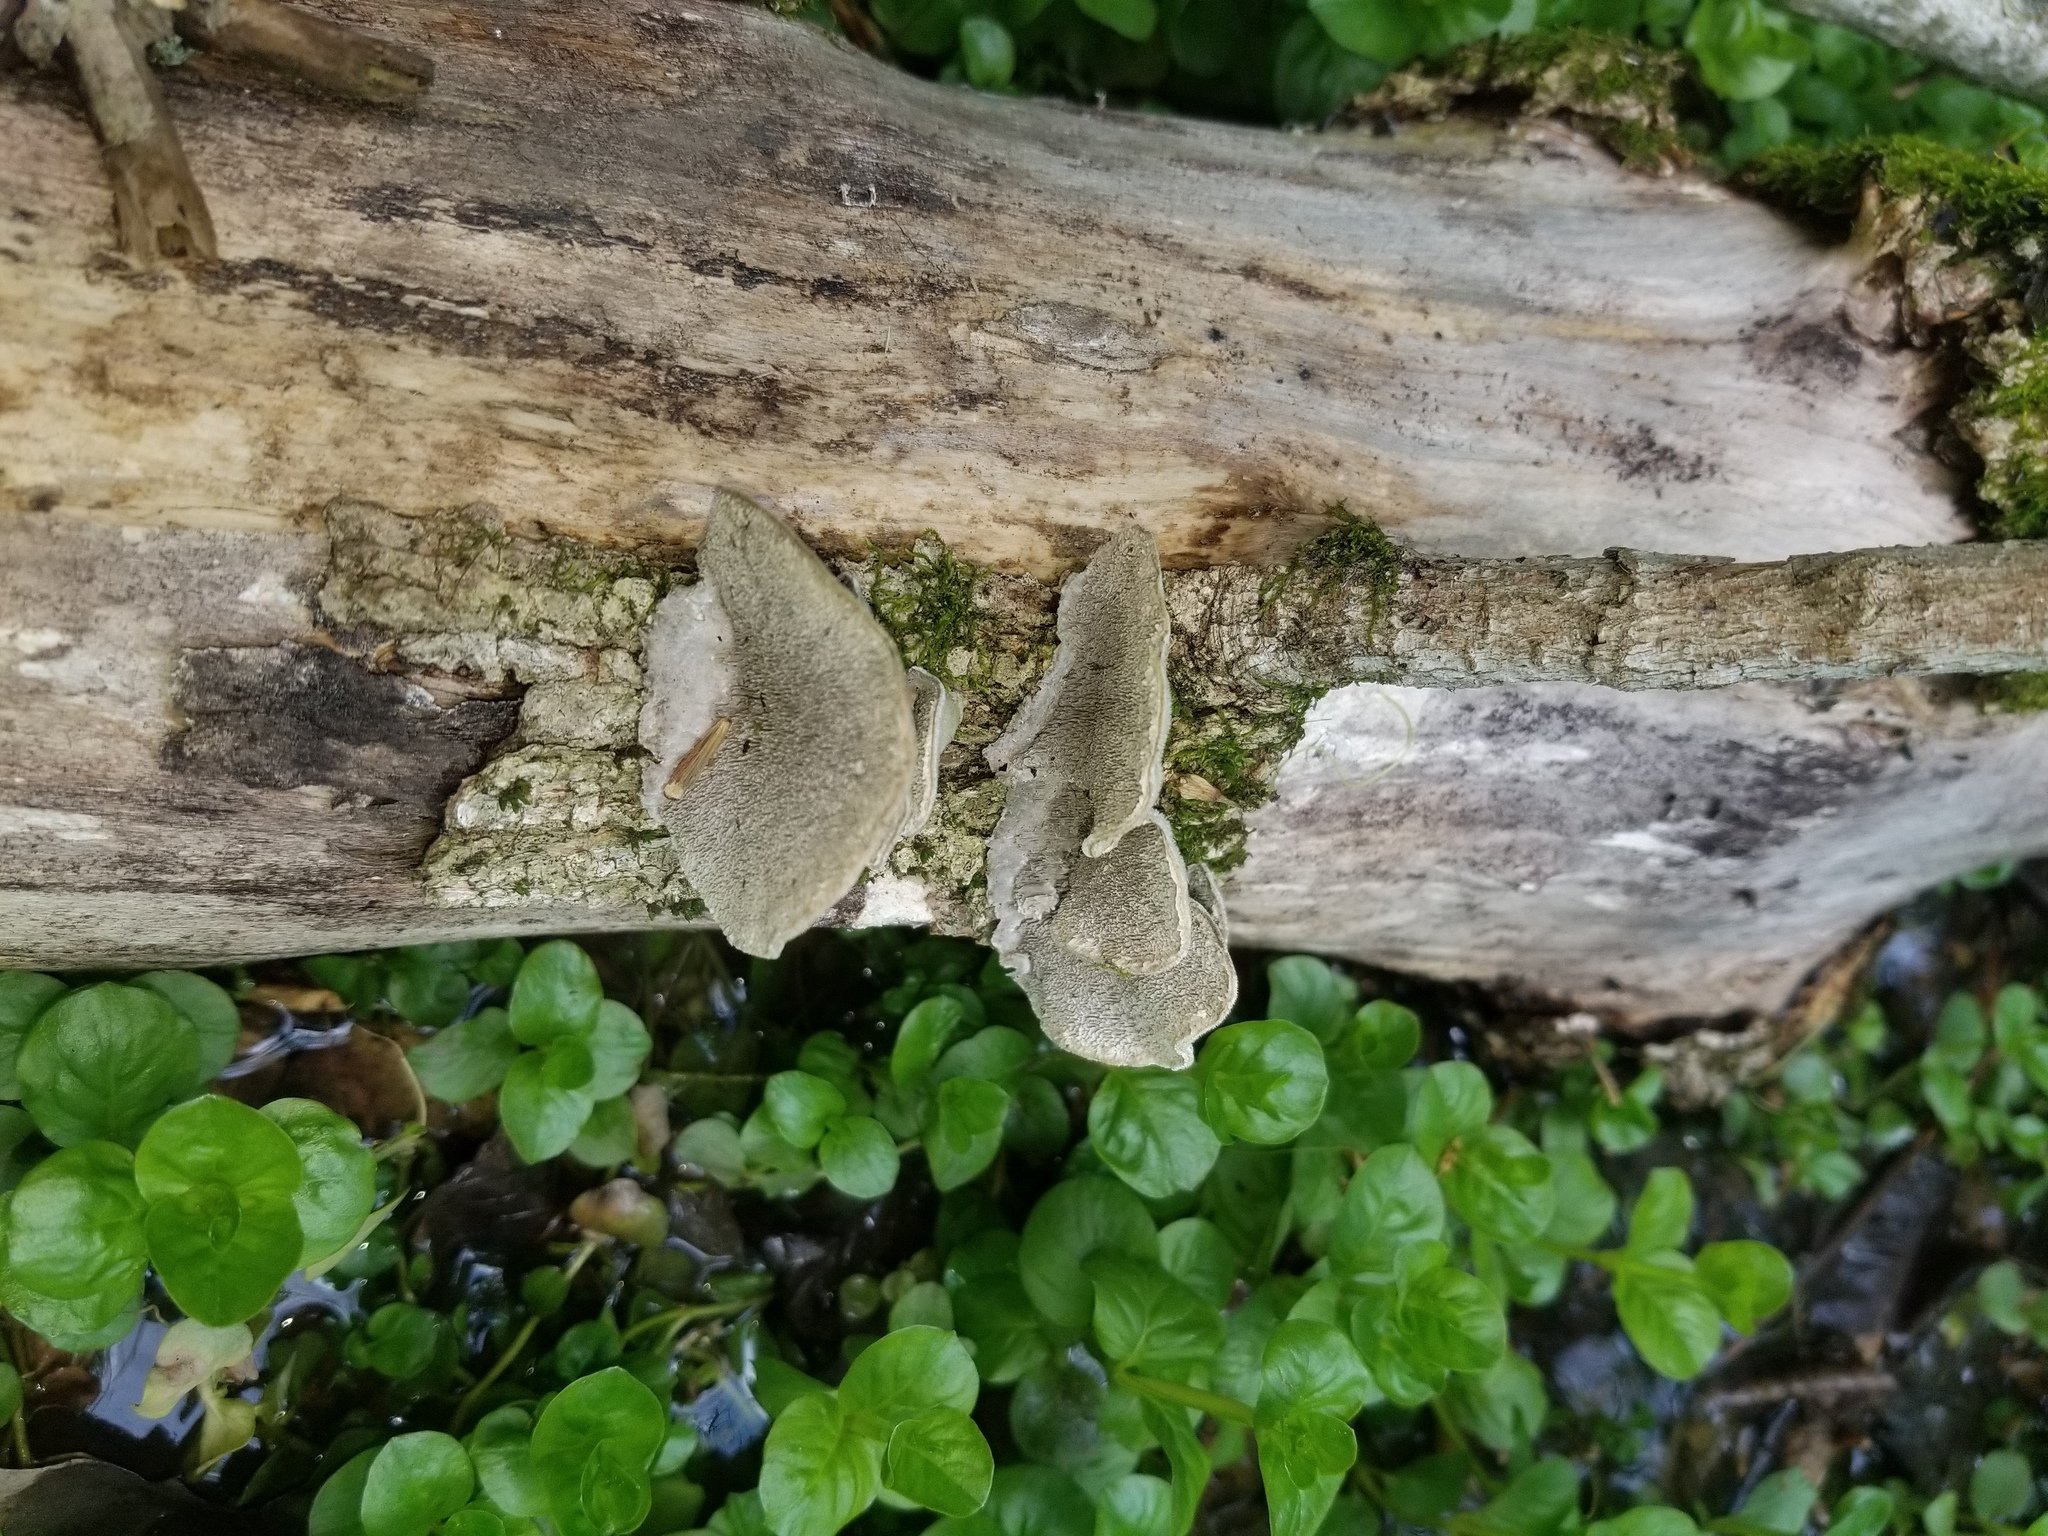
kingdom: Fungi
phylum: Basidiomycota
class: Agaricomycetes
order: Polyporales
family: Cerrenaceae
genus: Cerrena
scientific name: Cerrena unicolor
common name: Mossy maze polypore
